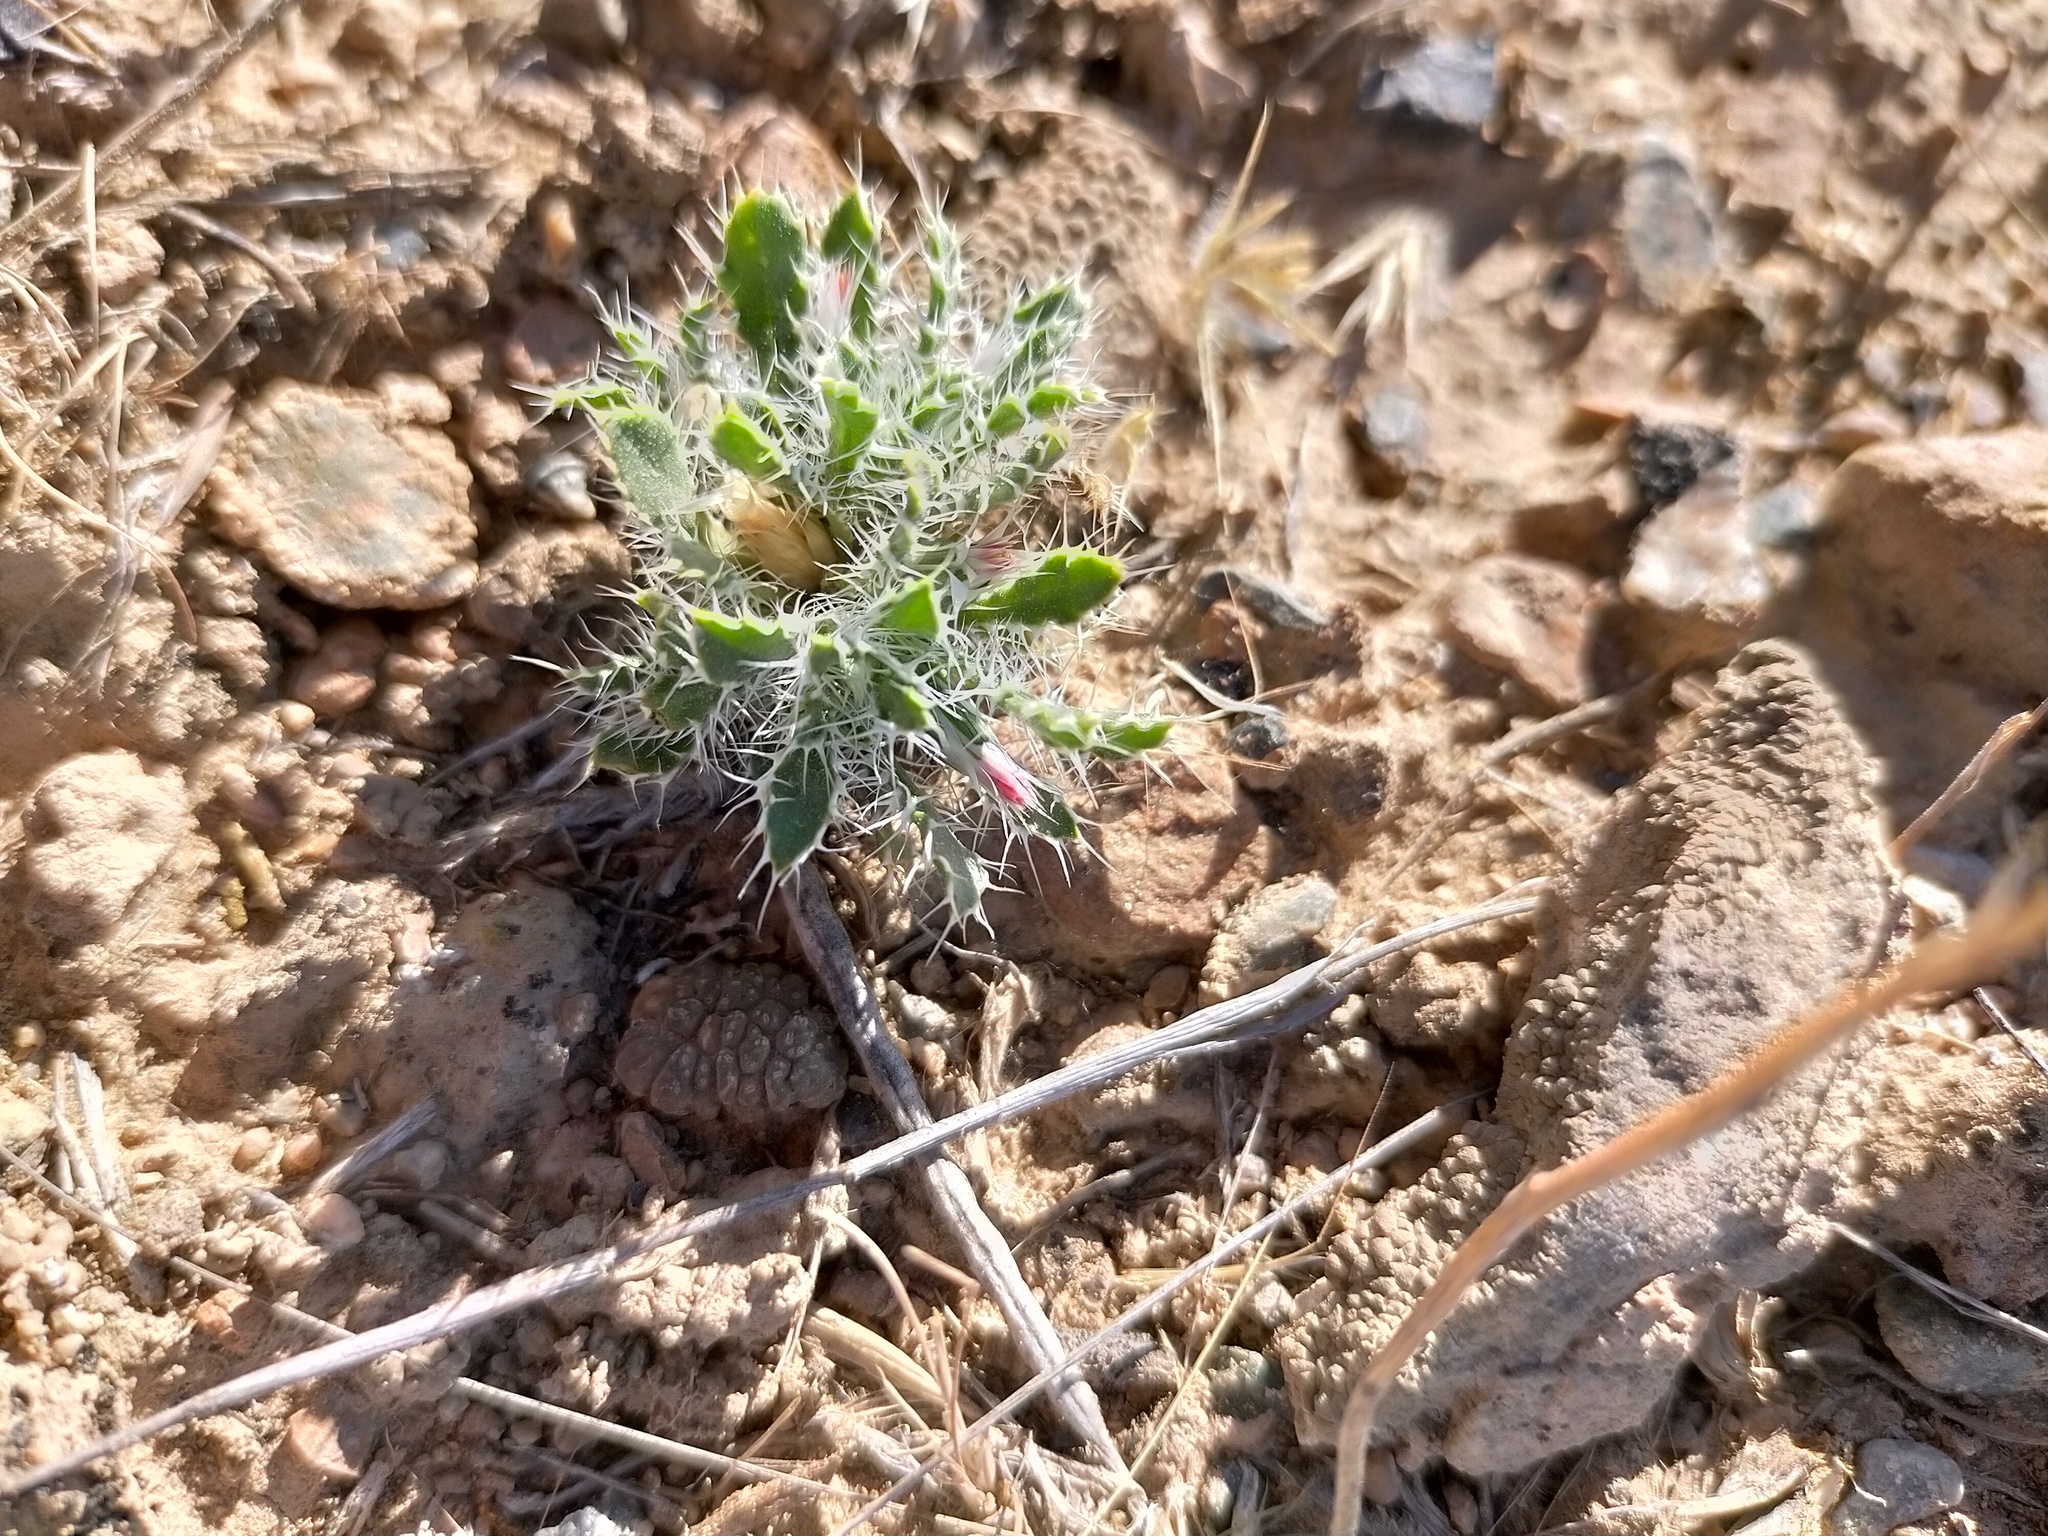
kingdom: Plantae
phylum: Tracheophyta
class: Magnoliopsida
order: Asterales
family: Asteraceae
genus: Schischkinia
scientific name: Schischkinia albispina
